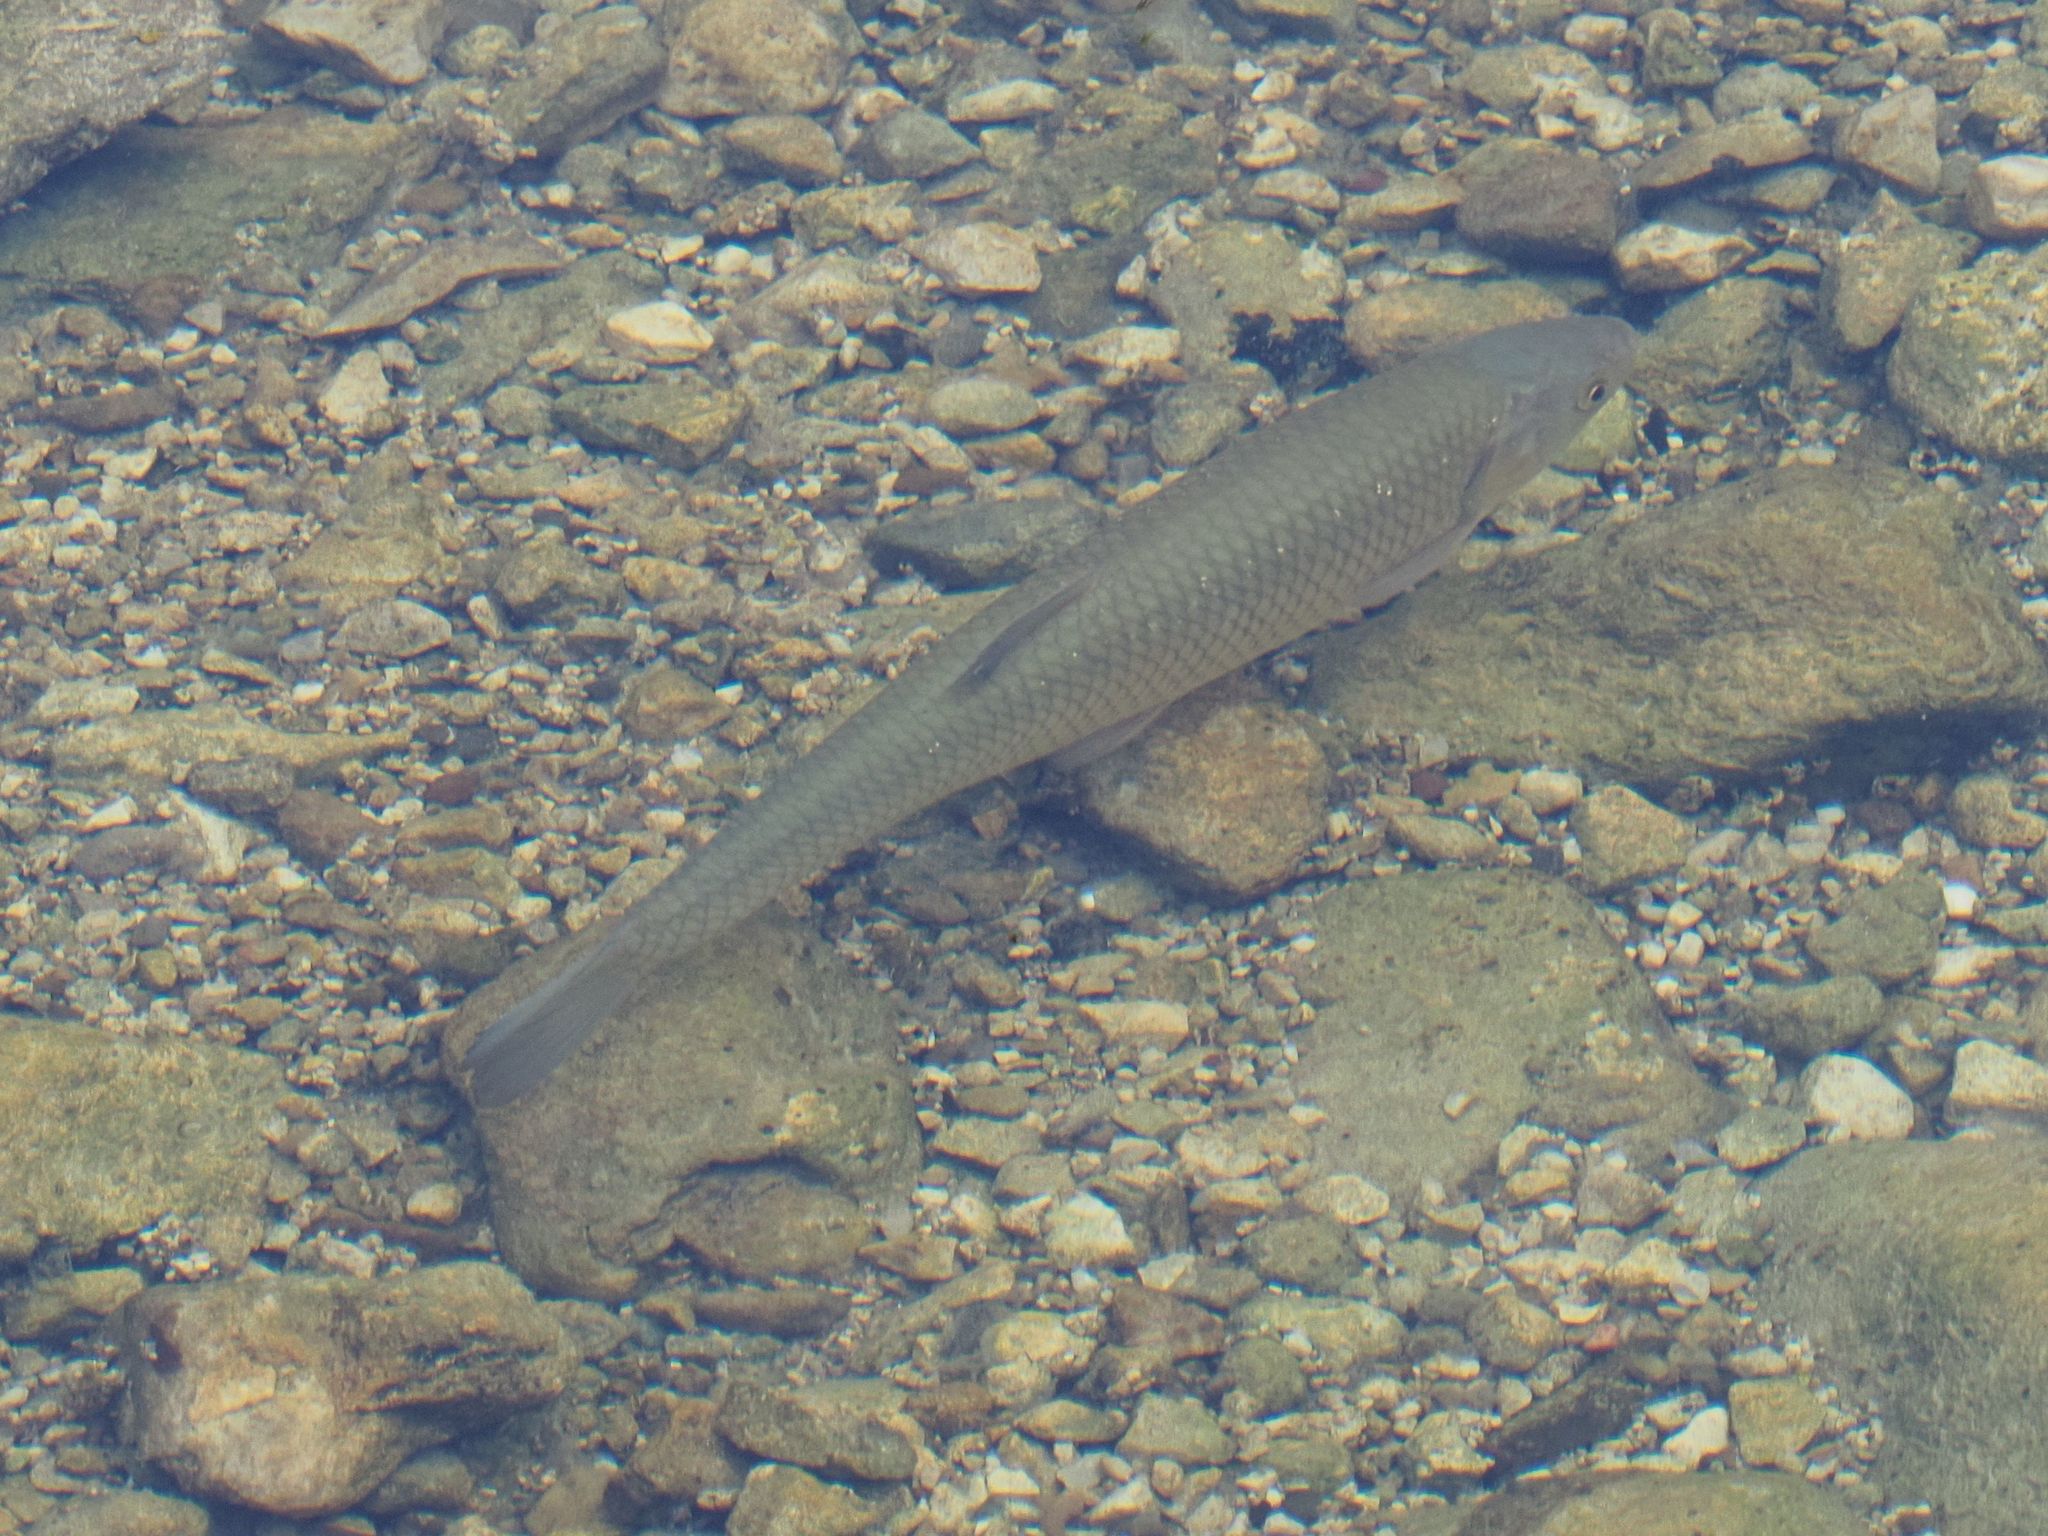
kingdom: Animalia
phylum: Chordata
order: Cypriniformes
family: Cyprinidae
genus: Squalius
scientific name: Squalius cephalus
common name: Chub
